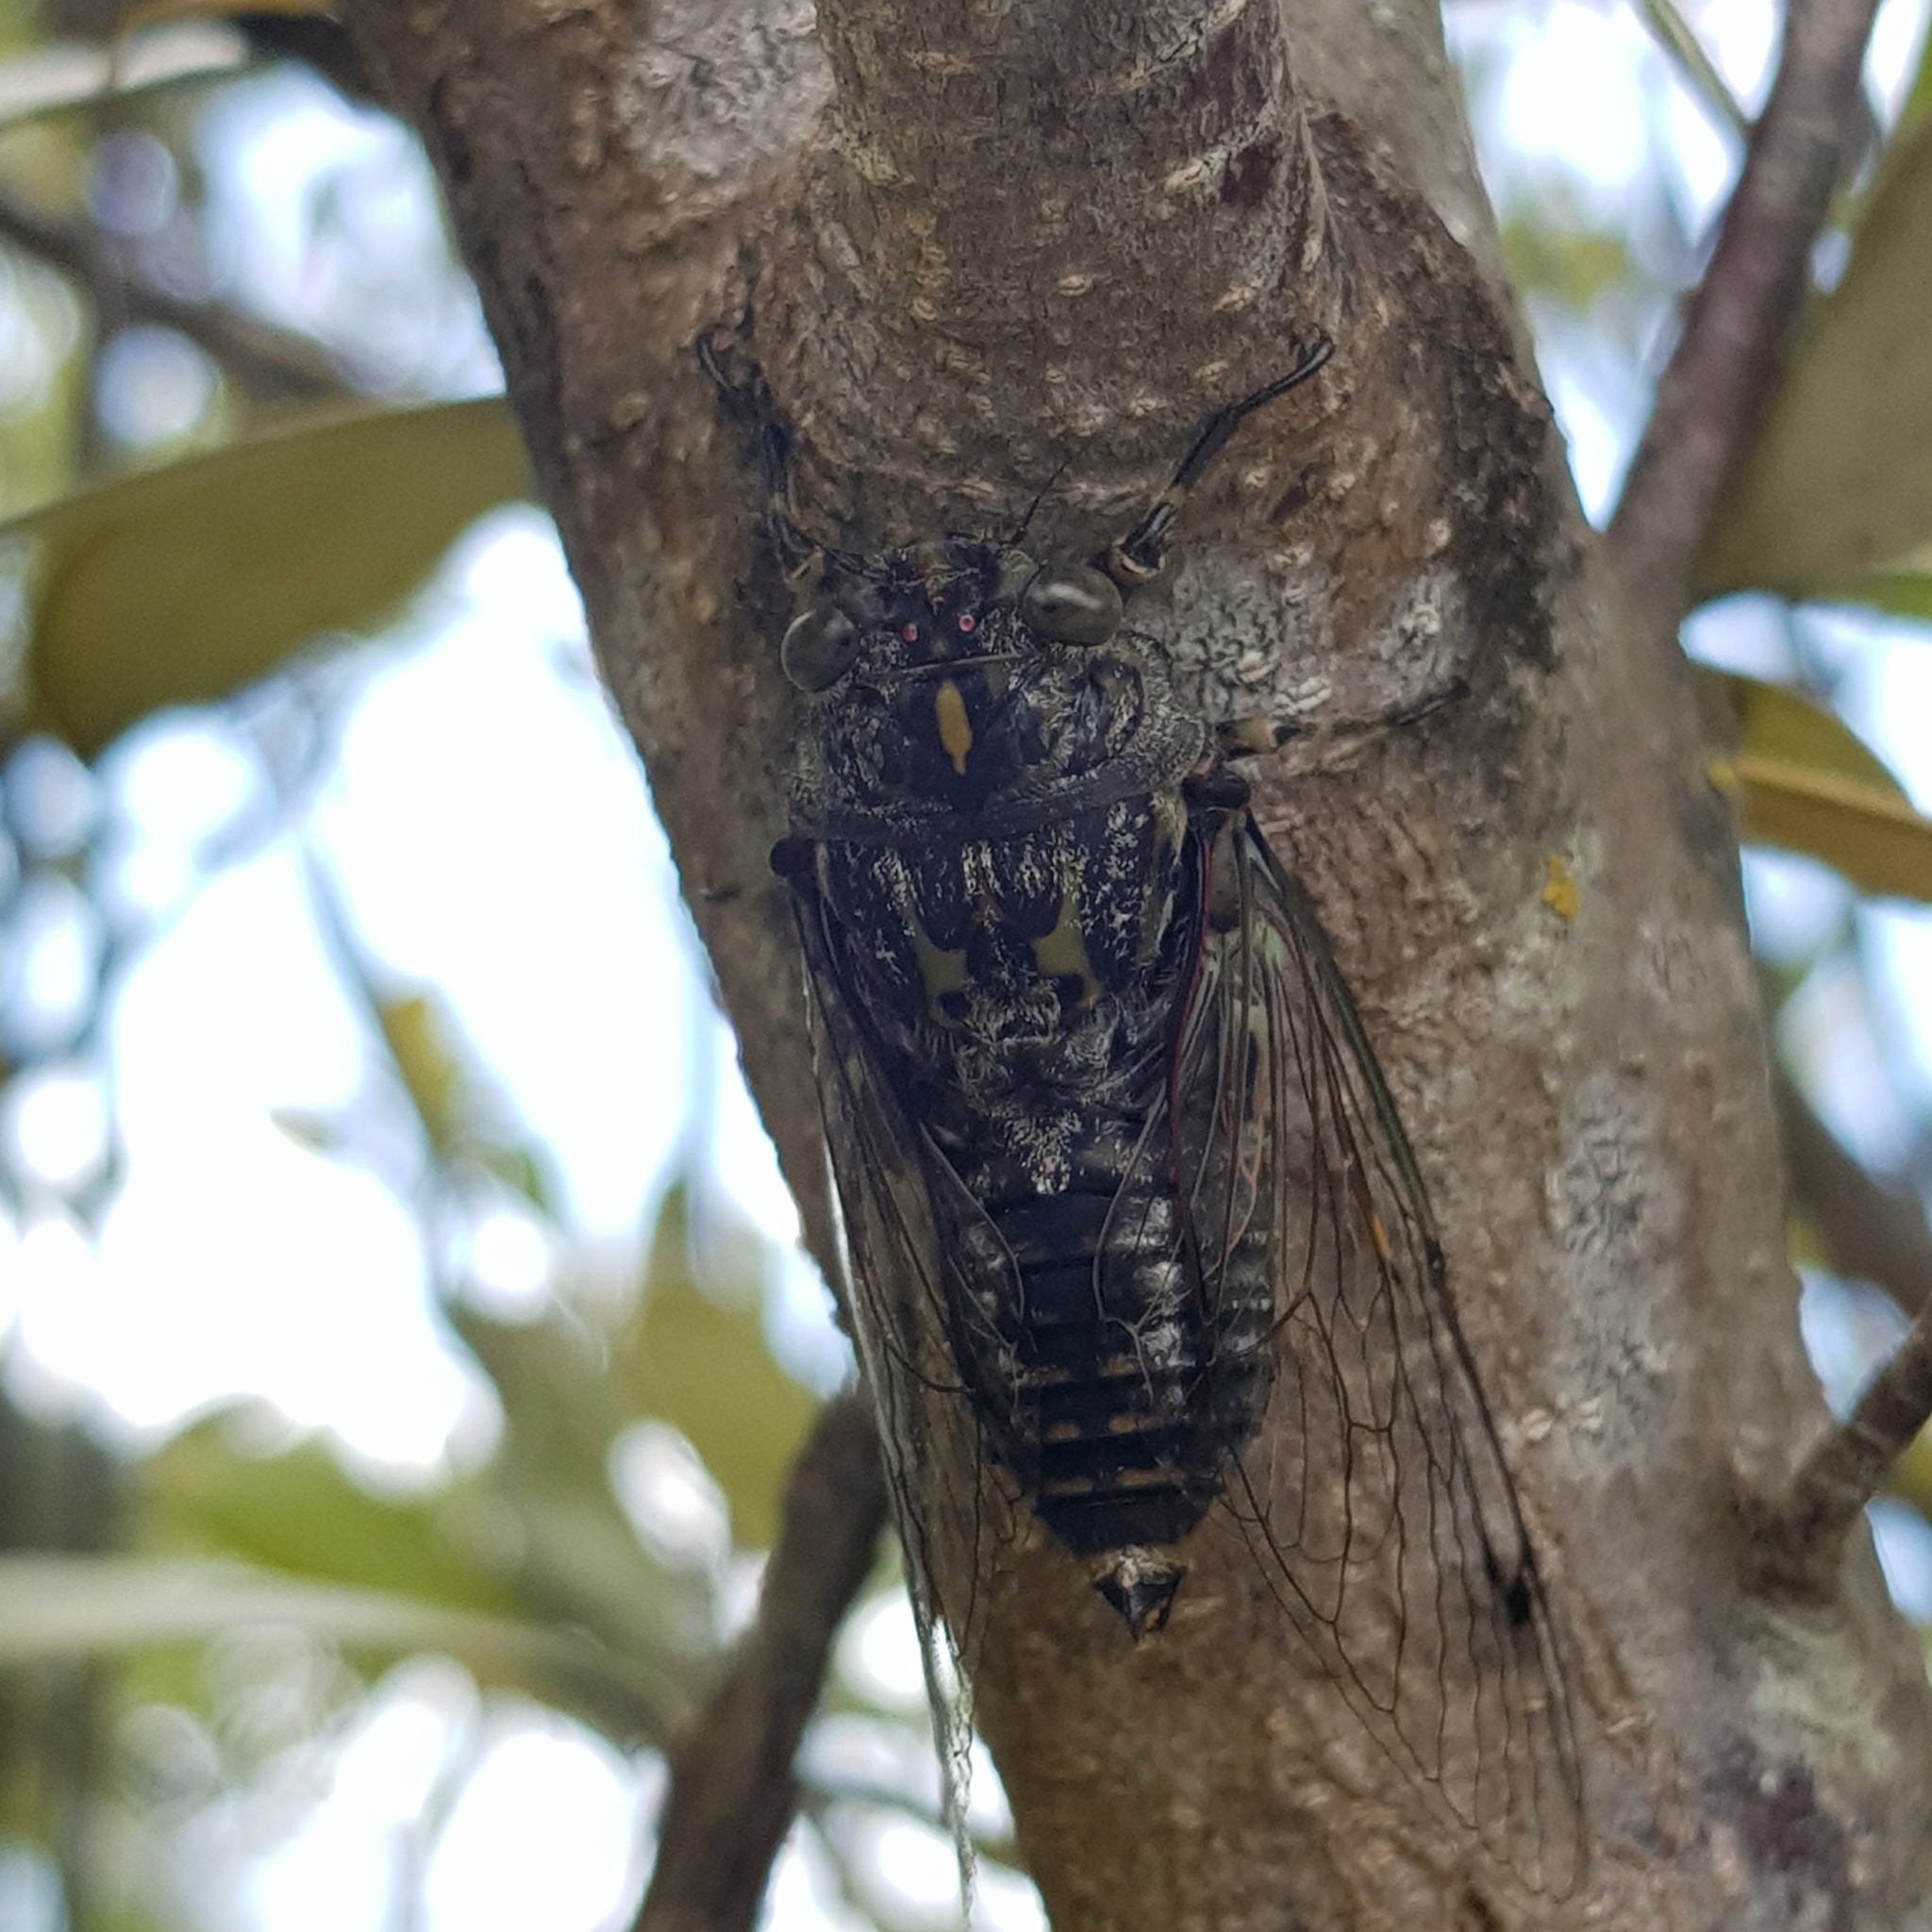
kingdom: Animalia
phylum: Arthropoda
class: Insecta
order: Hemiptera
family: Cicadidae
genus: Amphipsalta
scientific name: Amphipsalta cingulata
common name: Clapping cicada
